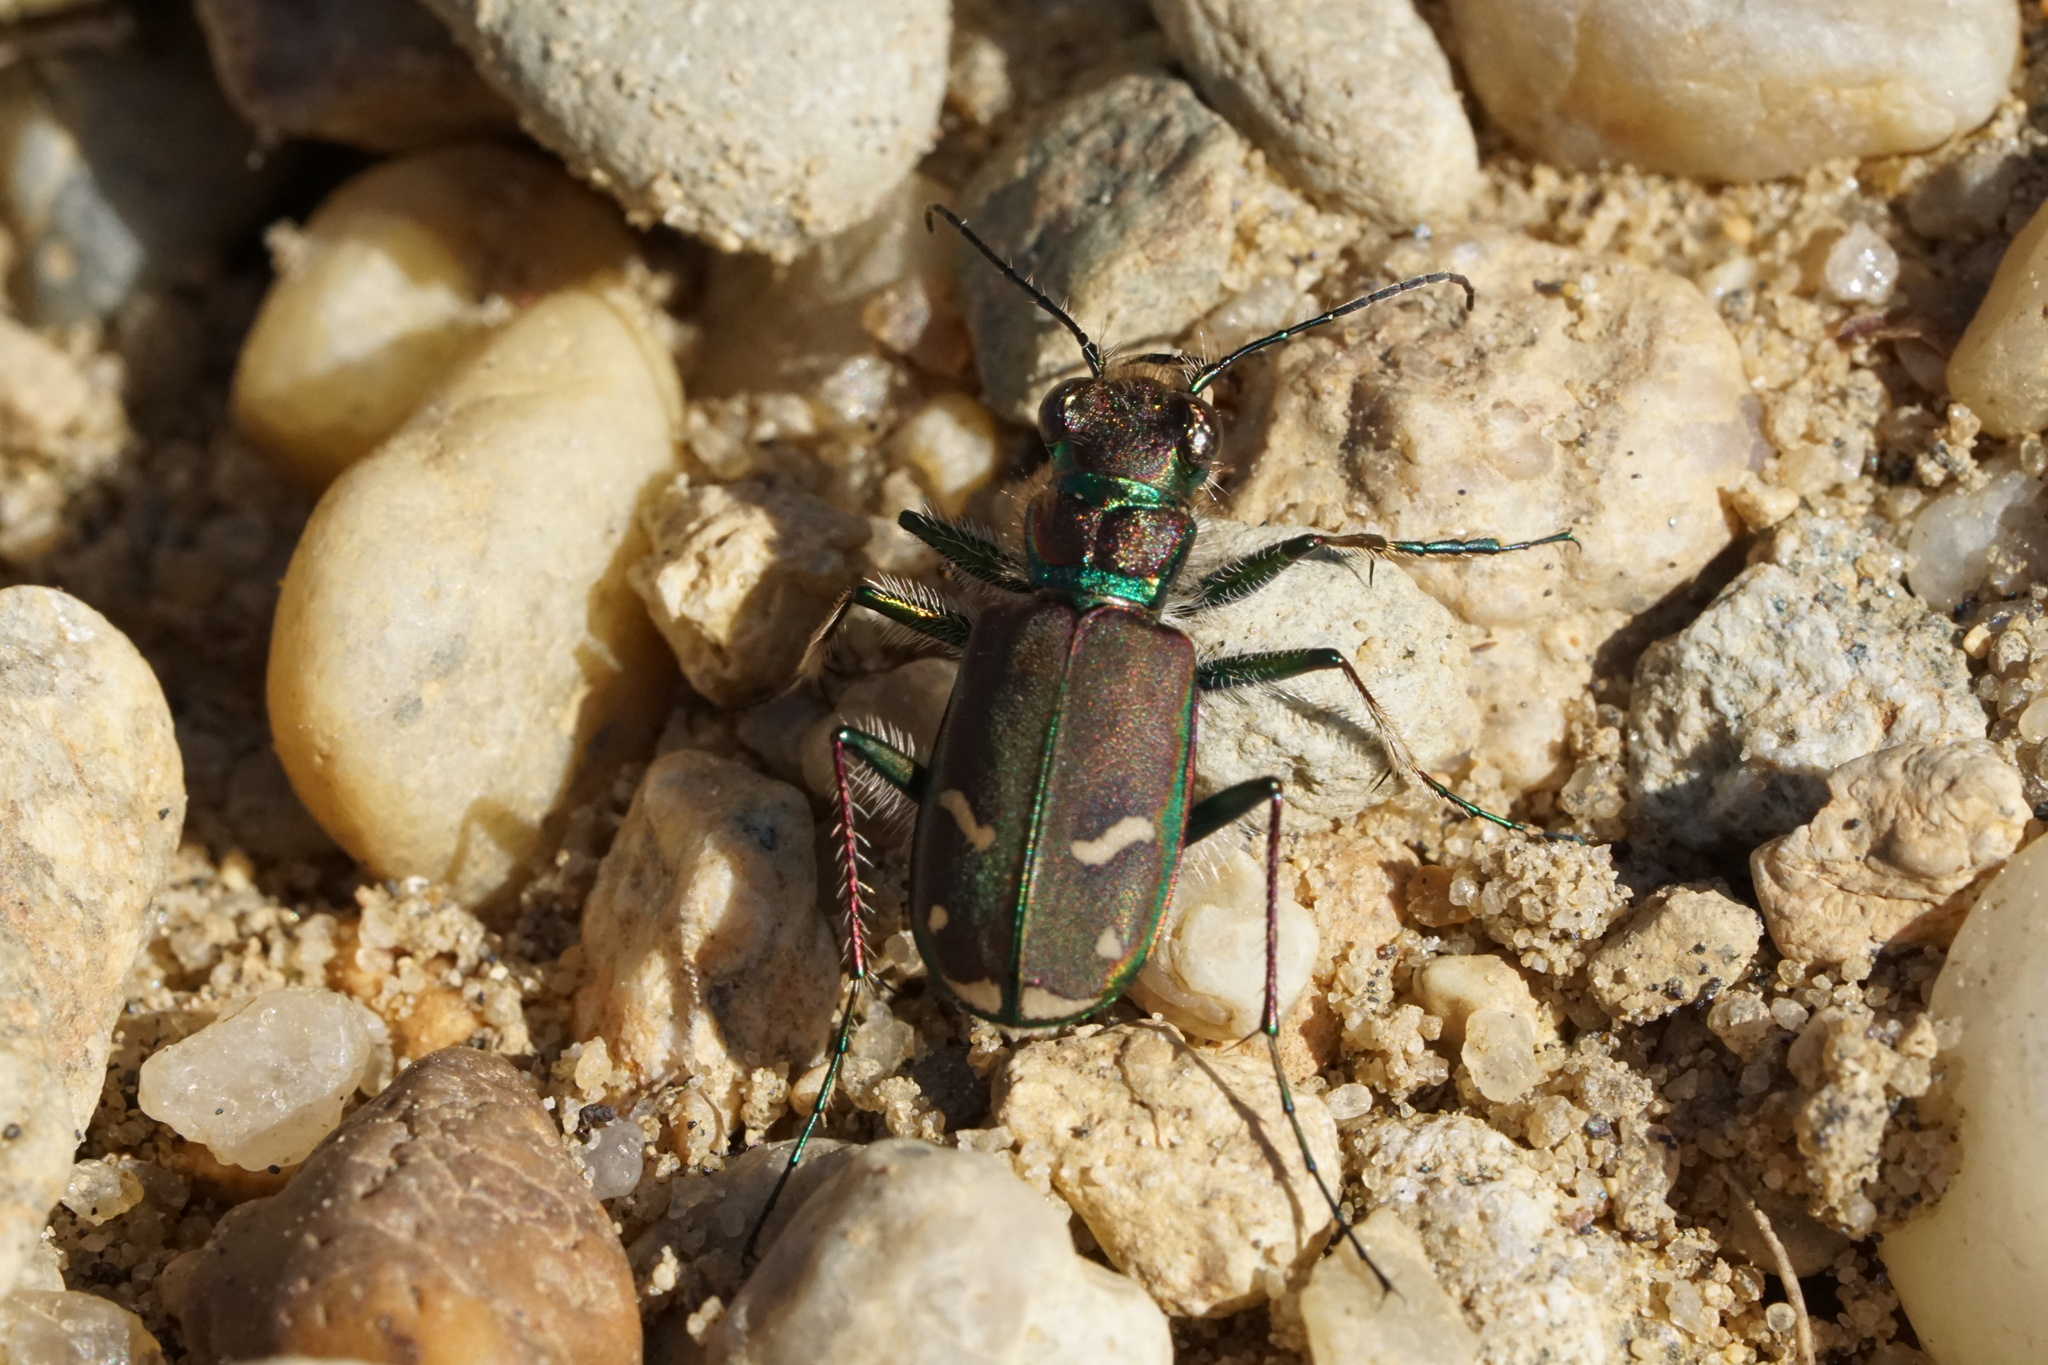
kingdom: Animalia
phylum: Arthropoda
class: Insecta
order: Coleoptera
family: Carabidae
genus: Cicindela
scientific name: Cicindela purpurea
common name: Cow path tiger beetle
